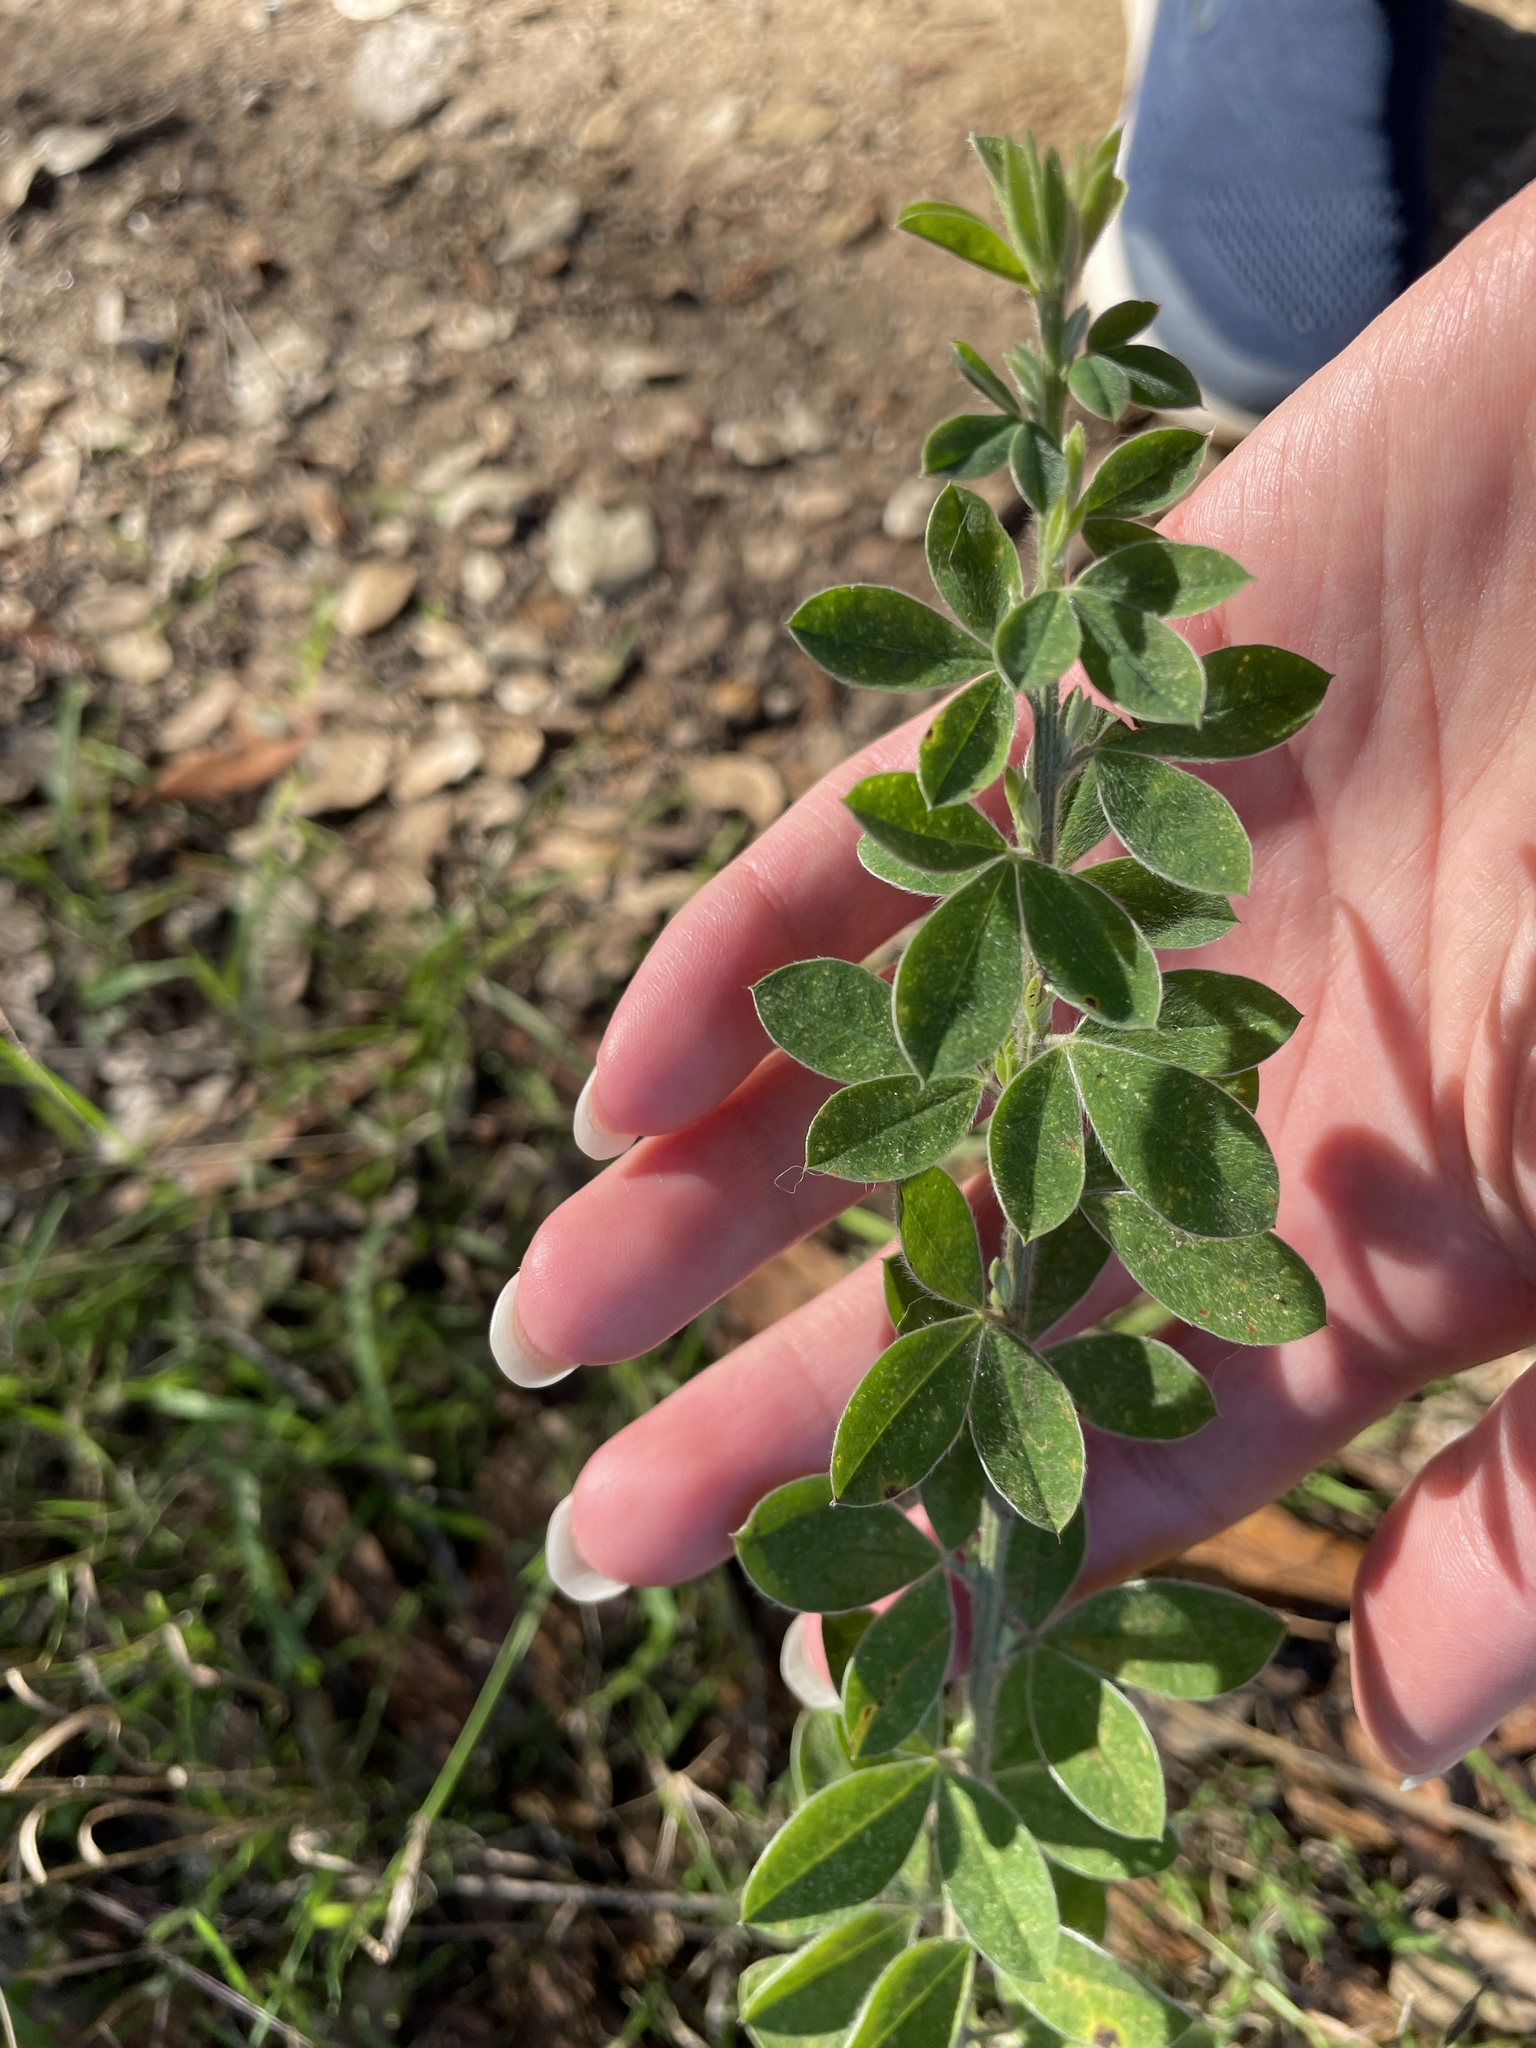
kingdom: Plantae
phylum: Tracheophyta
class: Magnoliopsida
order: Fabales
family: Fabaceae
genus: Genista
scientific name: Genista monspessulana
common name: Montpellier broom
